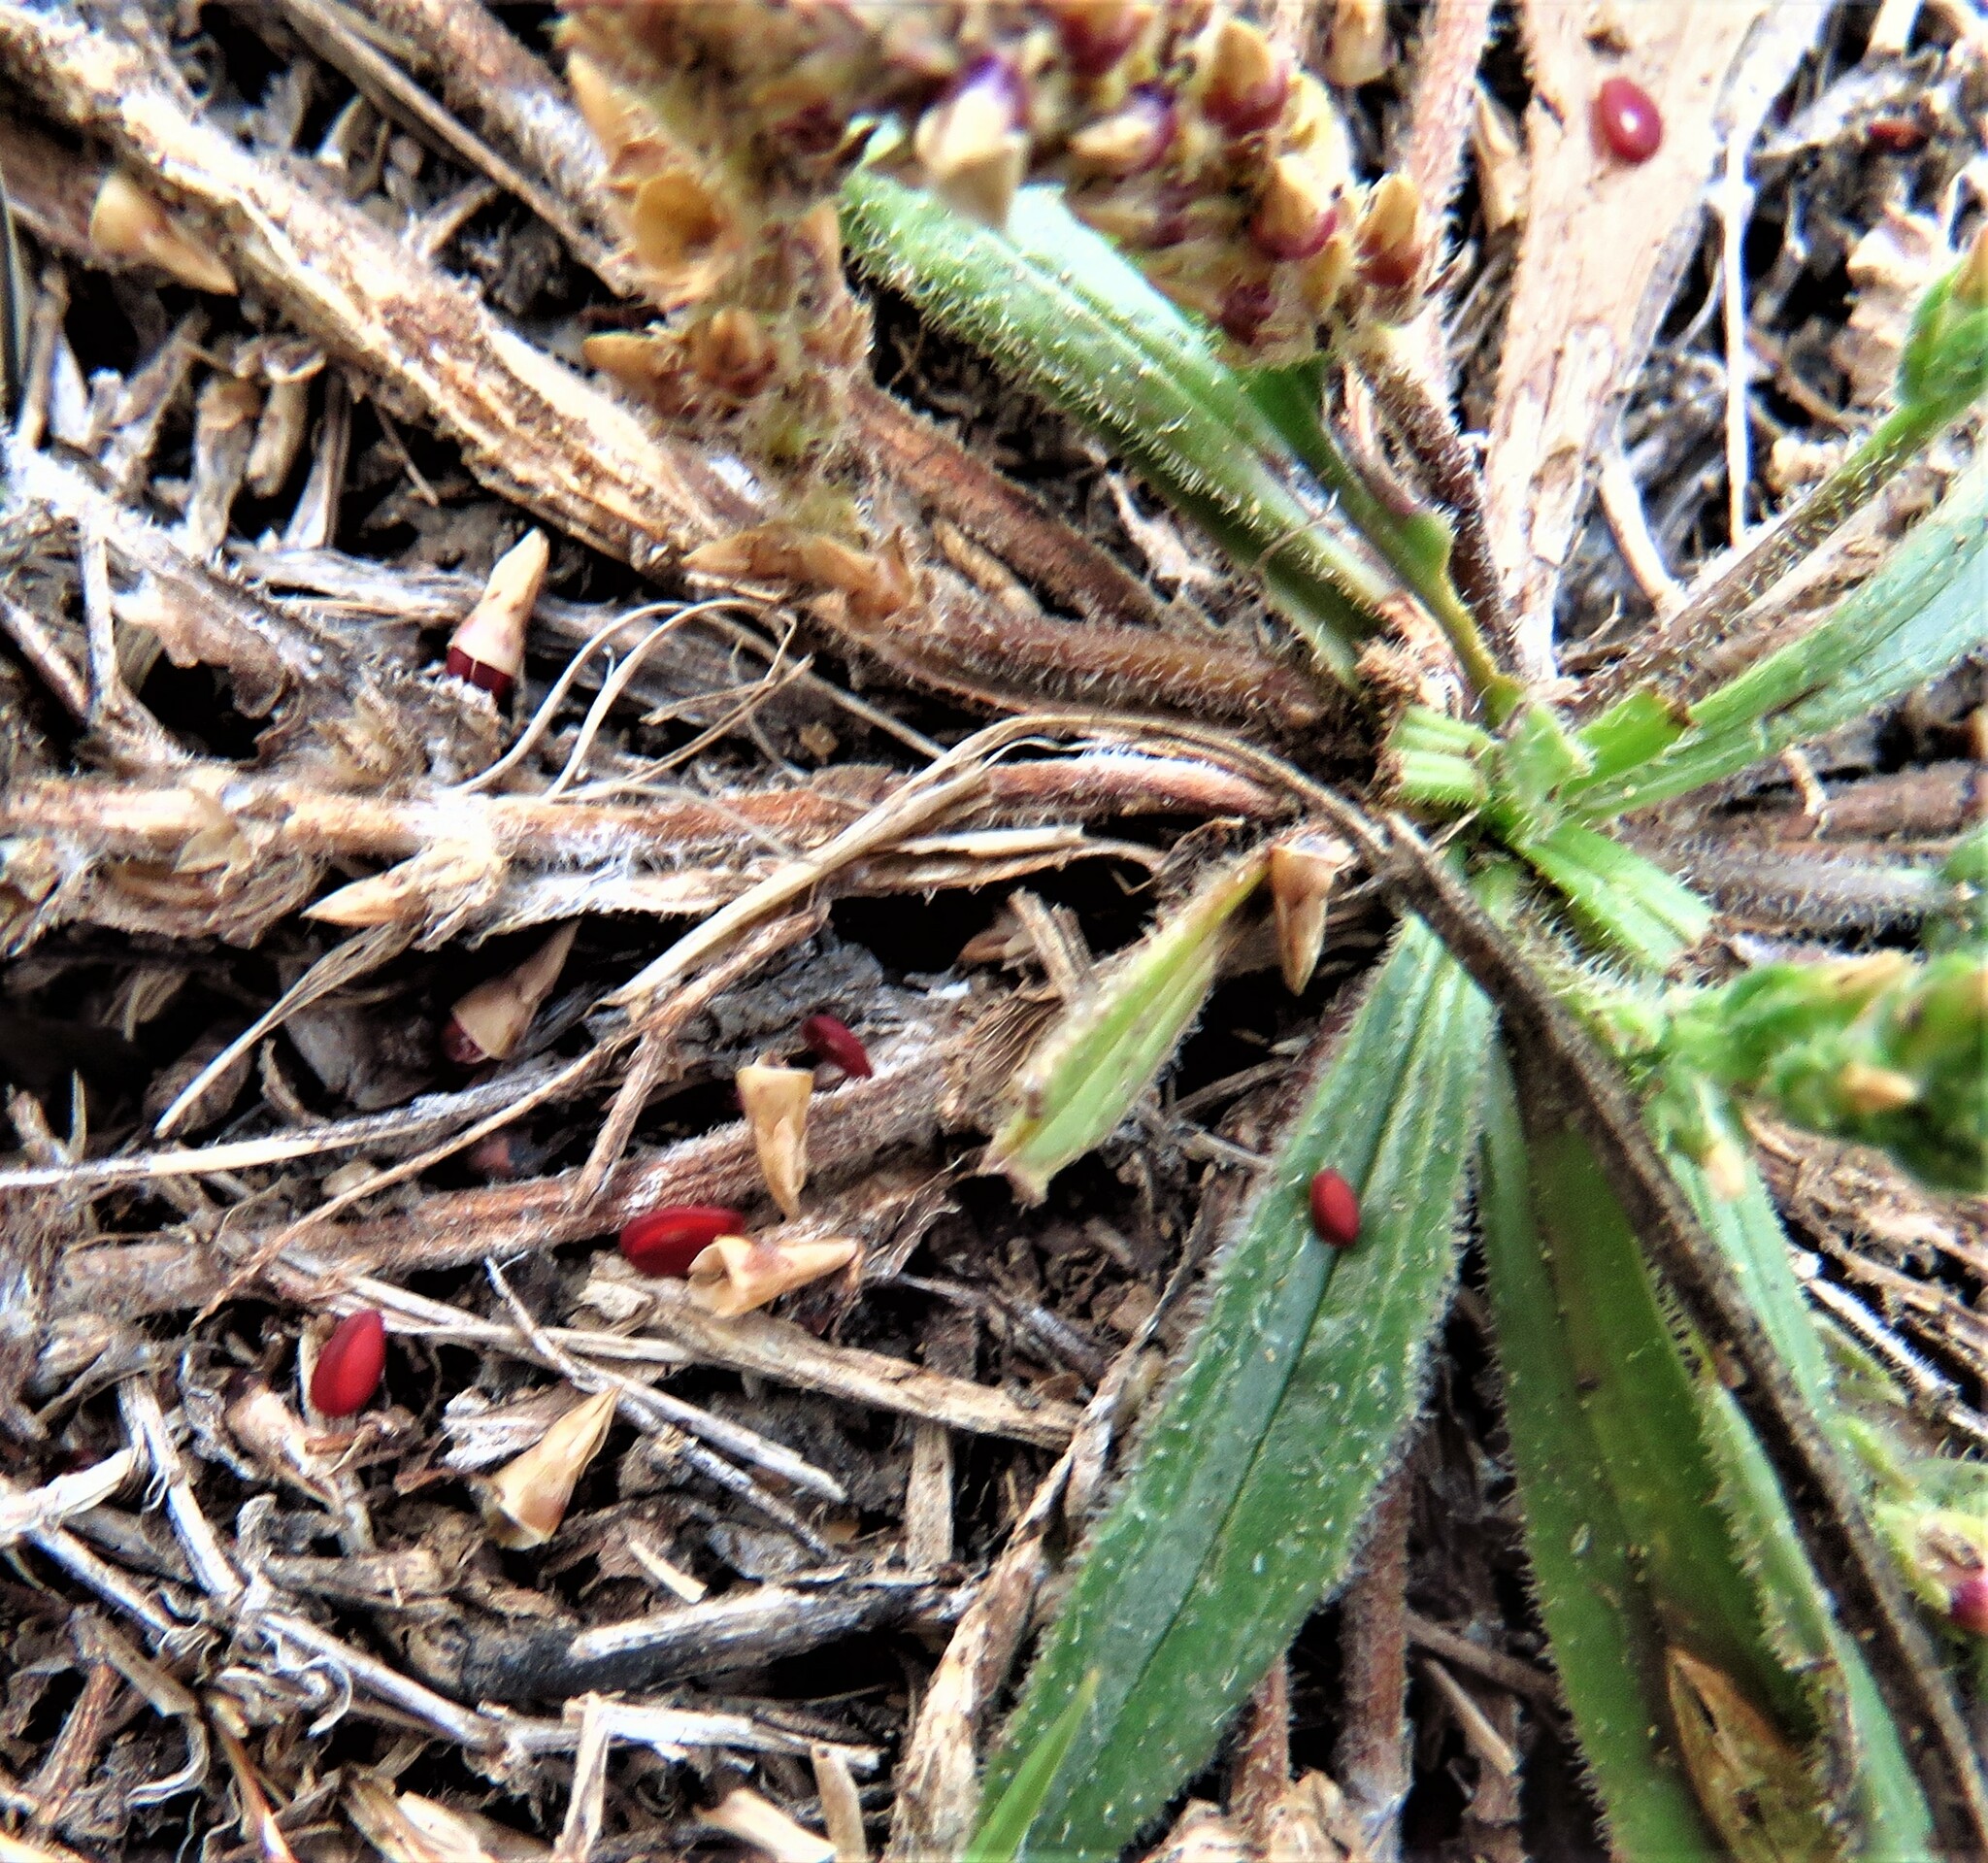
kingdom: Plantae
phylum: Tracheophyta
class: Magnoliopsida
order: Lamiales
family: Plantaginaceae
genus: Plantago
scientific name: Plantago rhodosperma
